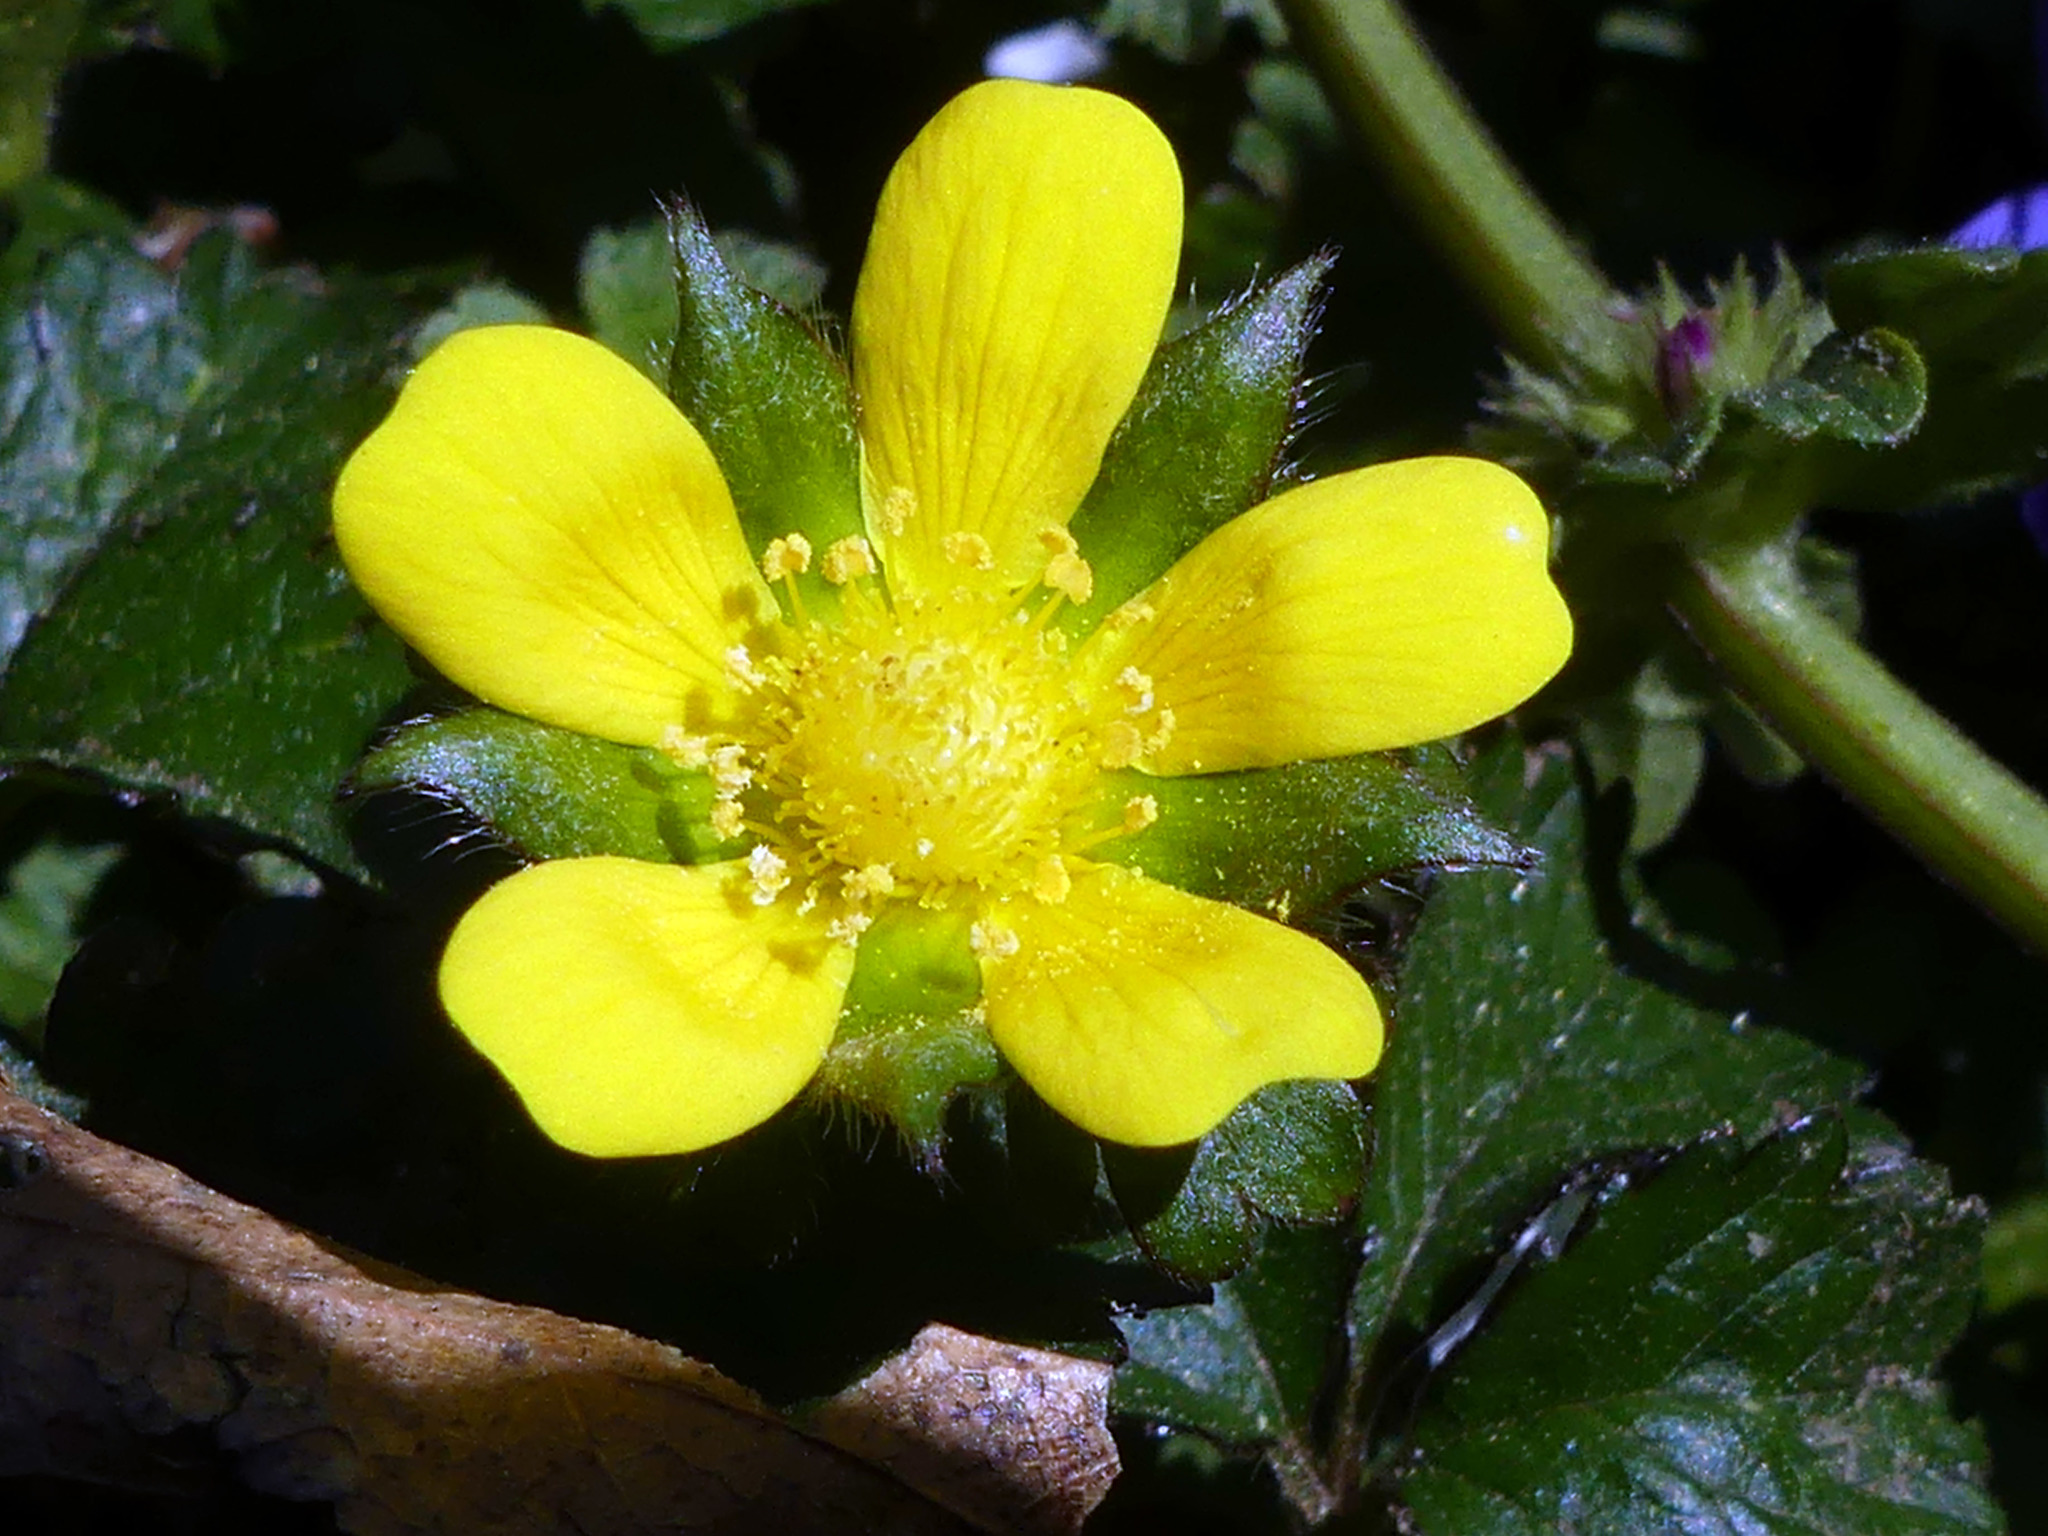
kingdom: Plantae
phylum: Tracheophyta
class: Magnoliopsida
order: Rosales
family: Rosaceae
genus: Potentilla
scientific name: Potentilla indica
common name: Yellow-flowered strawberry
